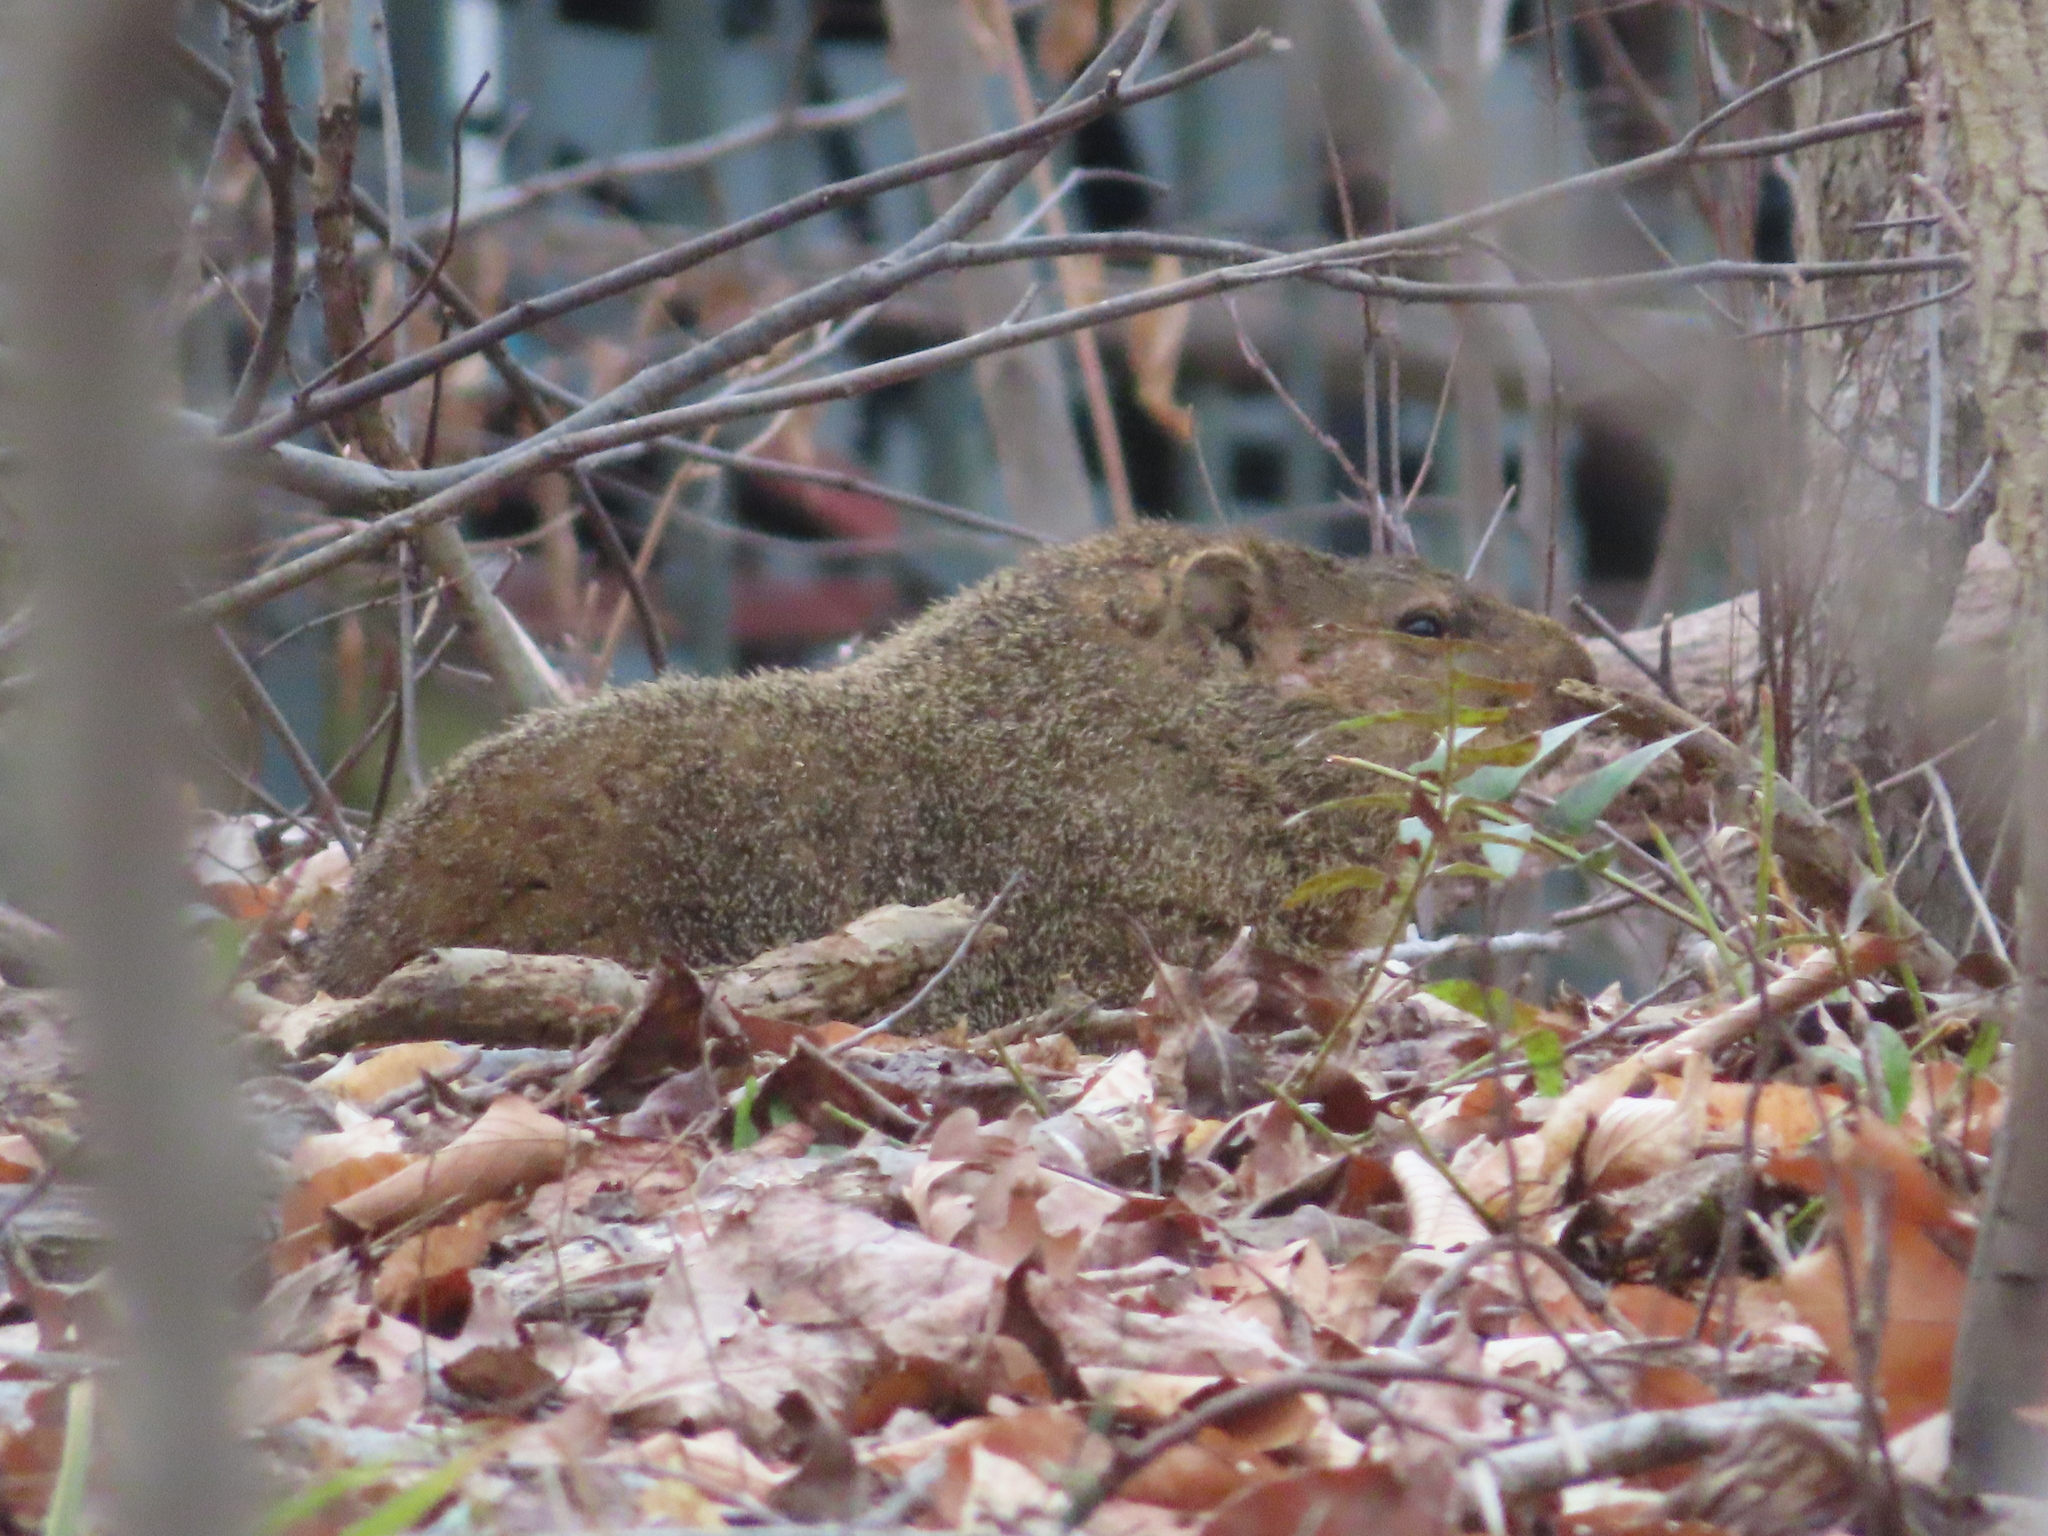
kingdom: Animalia
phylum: Chordata
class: Mammalia
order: Rodentia
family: Sciuridae
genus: Marmota
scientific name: Marmota monax
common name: Groundhog
